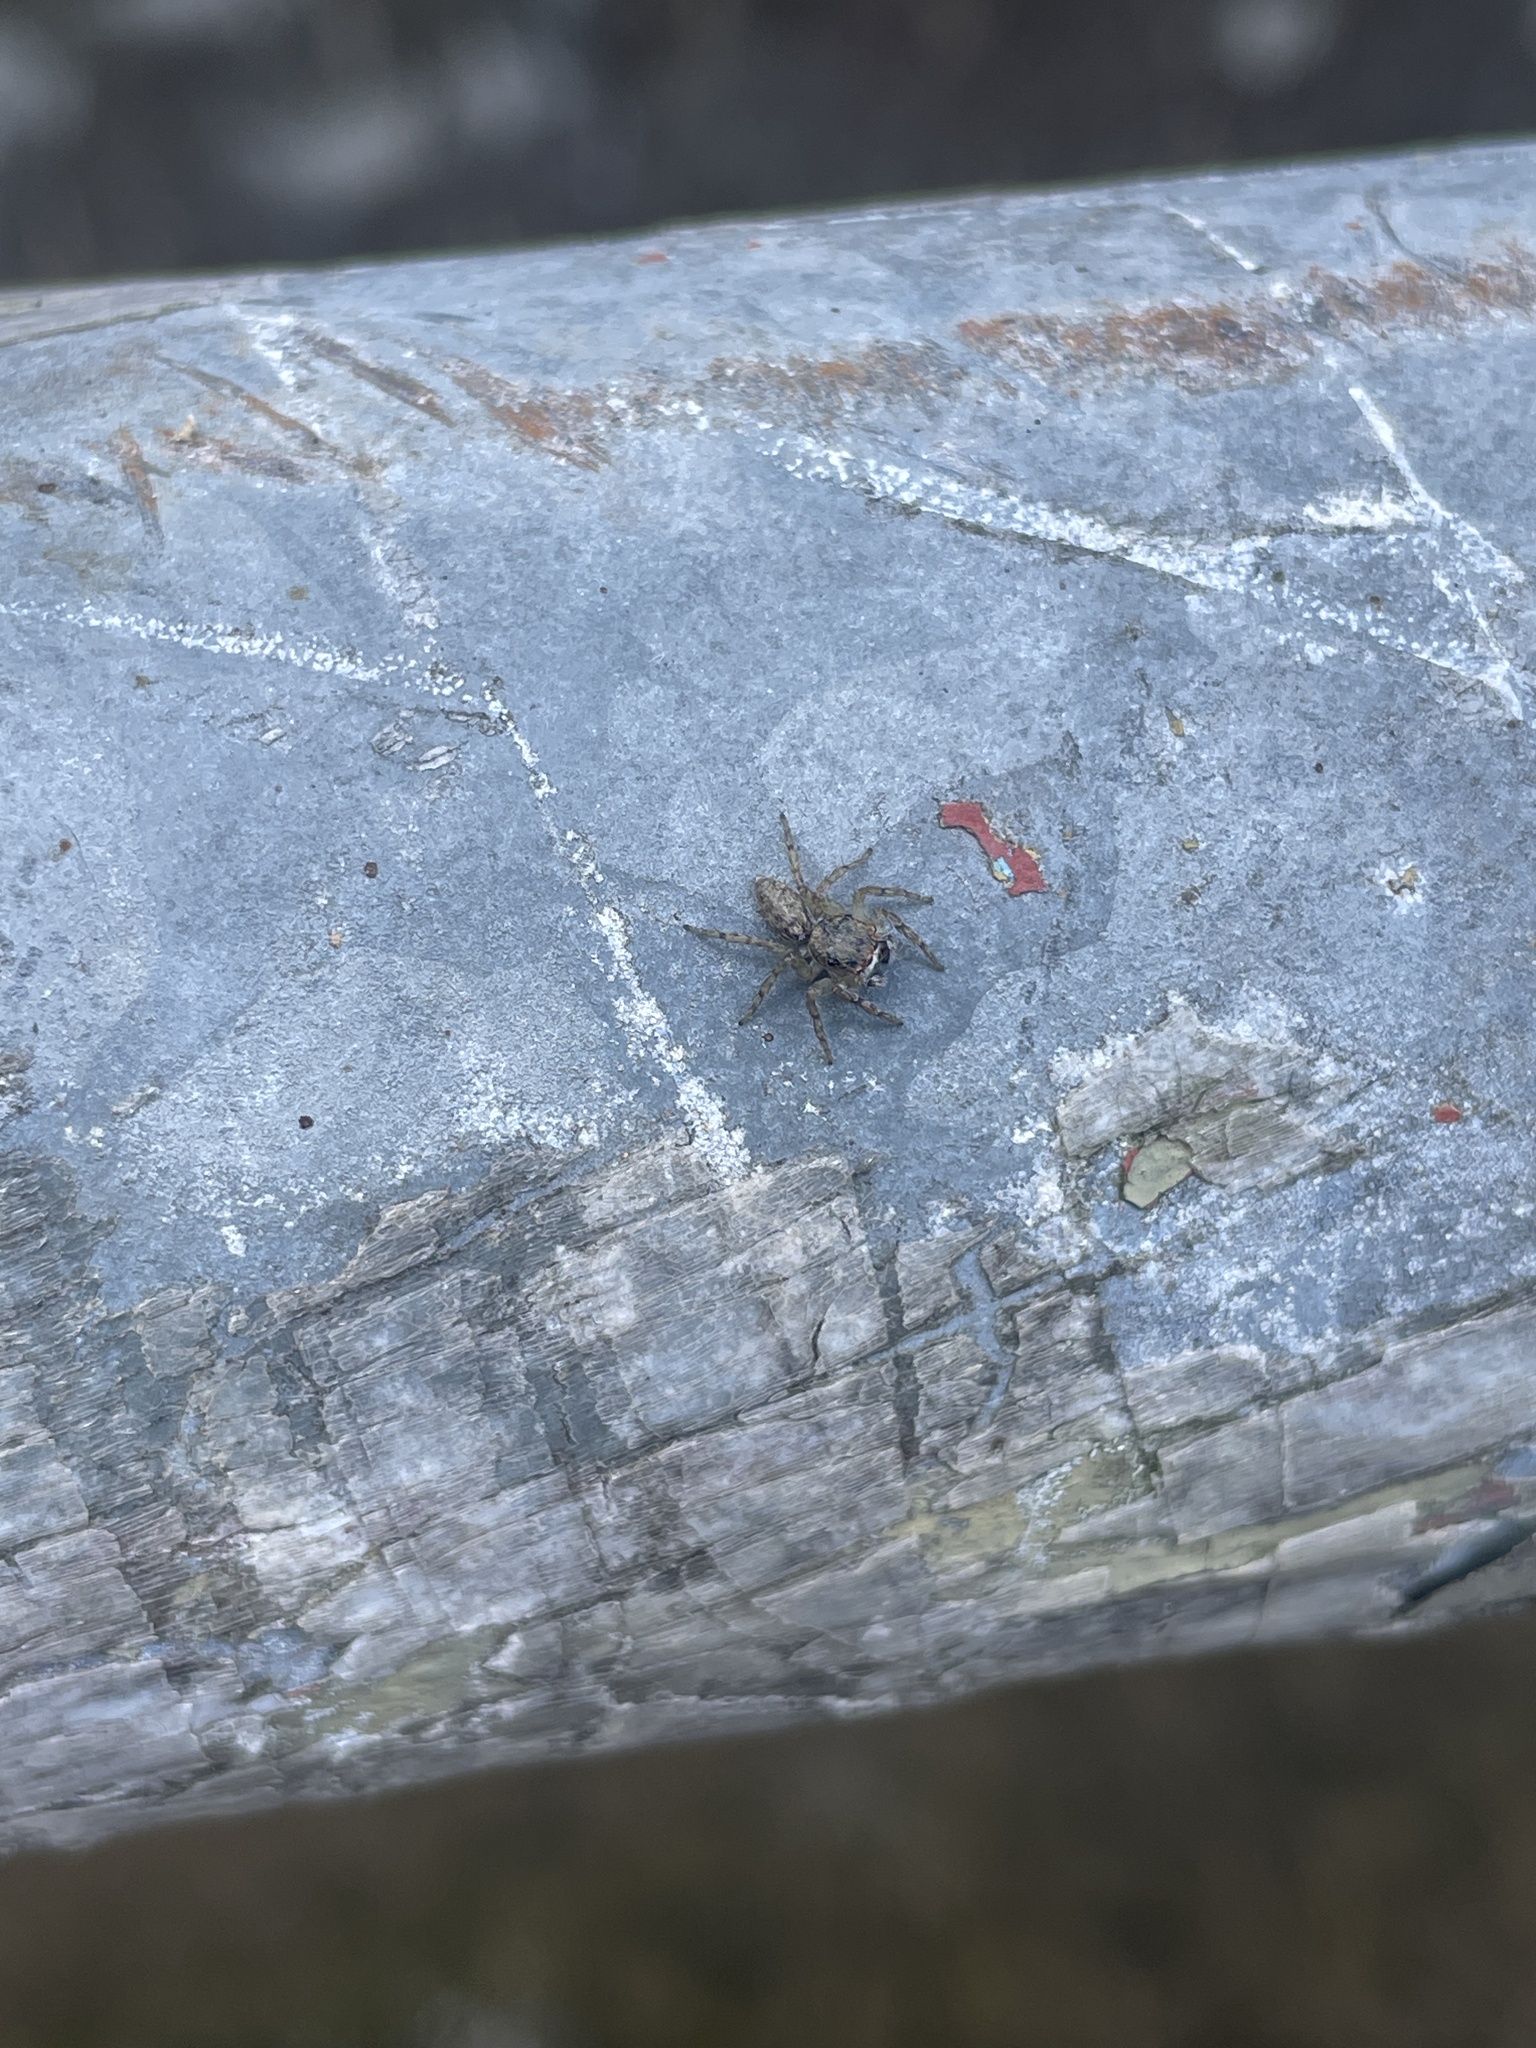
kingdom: Animalia
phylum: Arthropoda
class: Arachnida
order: Araneae
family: Salticidae
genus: Cytaea
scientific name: Cytaea maoming
